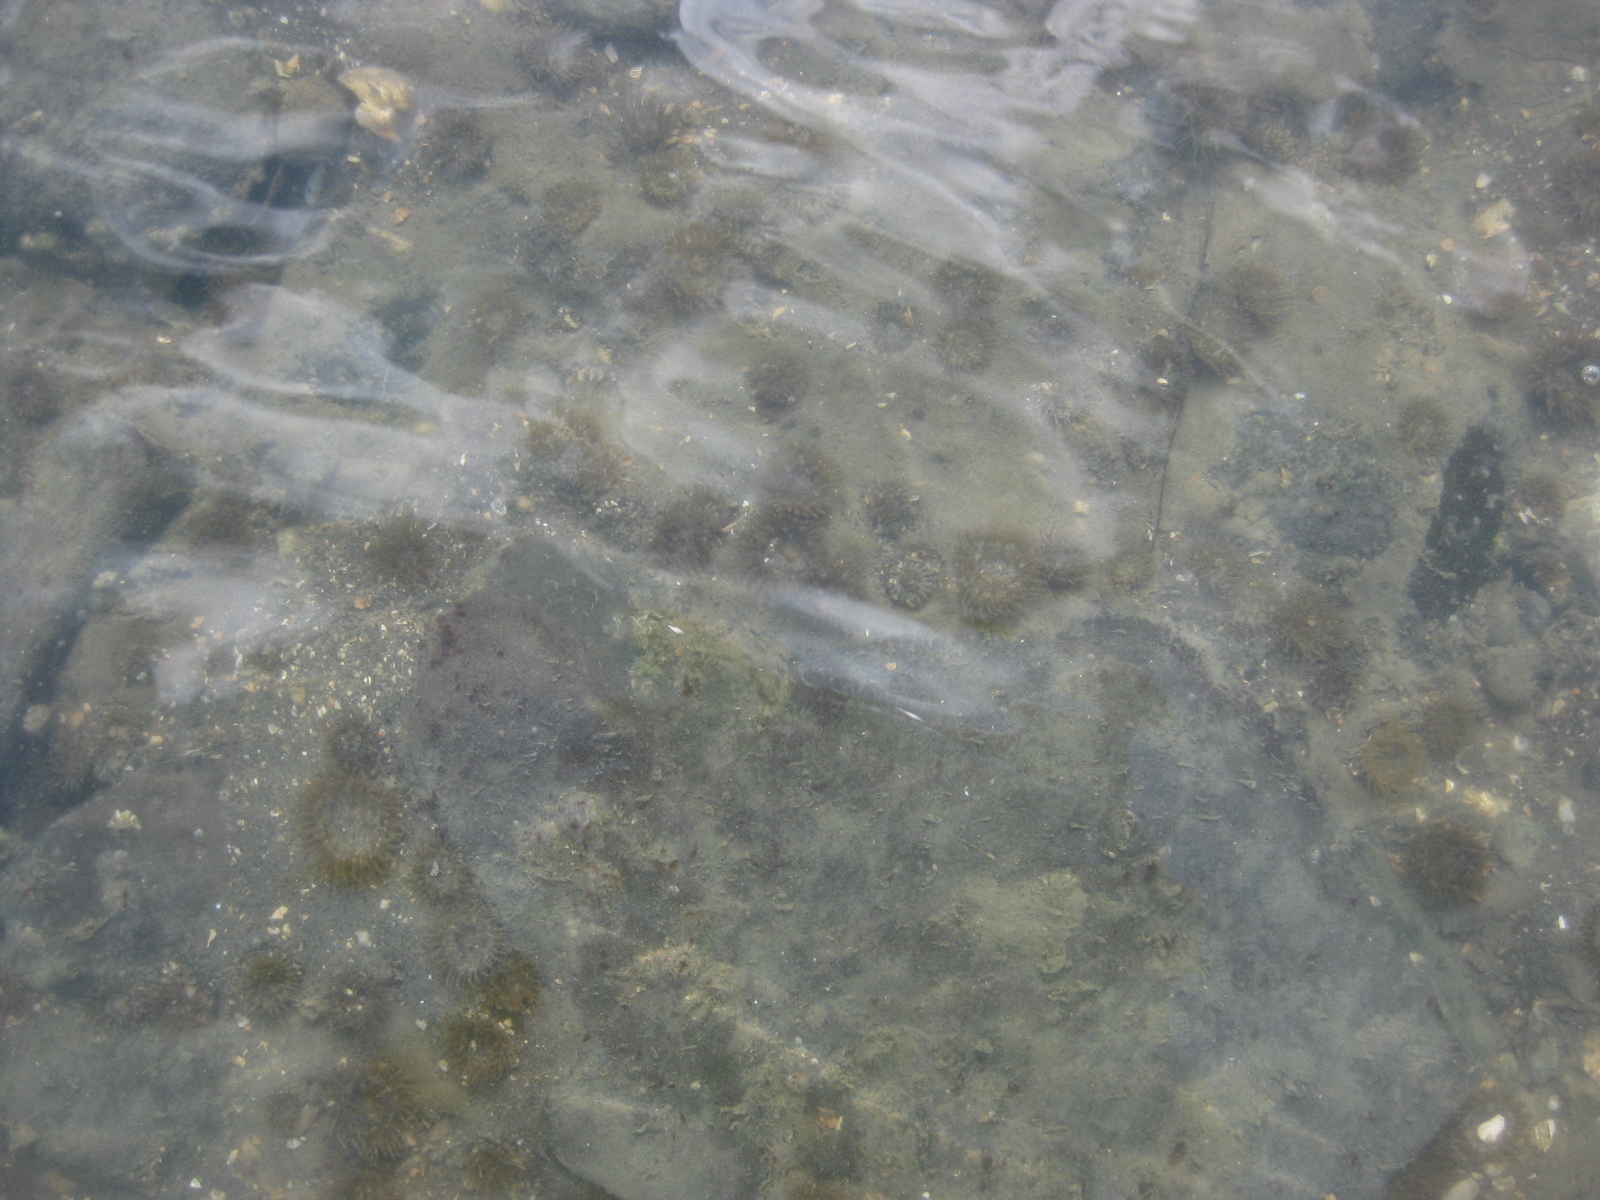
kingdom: Animalia
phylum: Cnidaria
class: Anthozoa
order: Actiniaria
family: Actiniidae
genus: Anthopleura
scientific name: Anthopleura hermaphroditica
